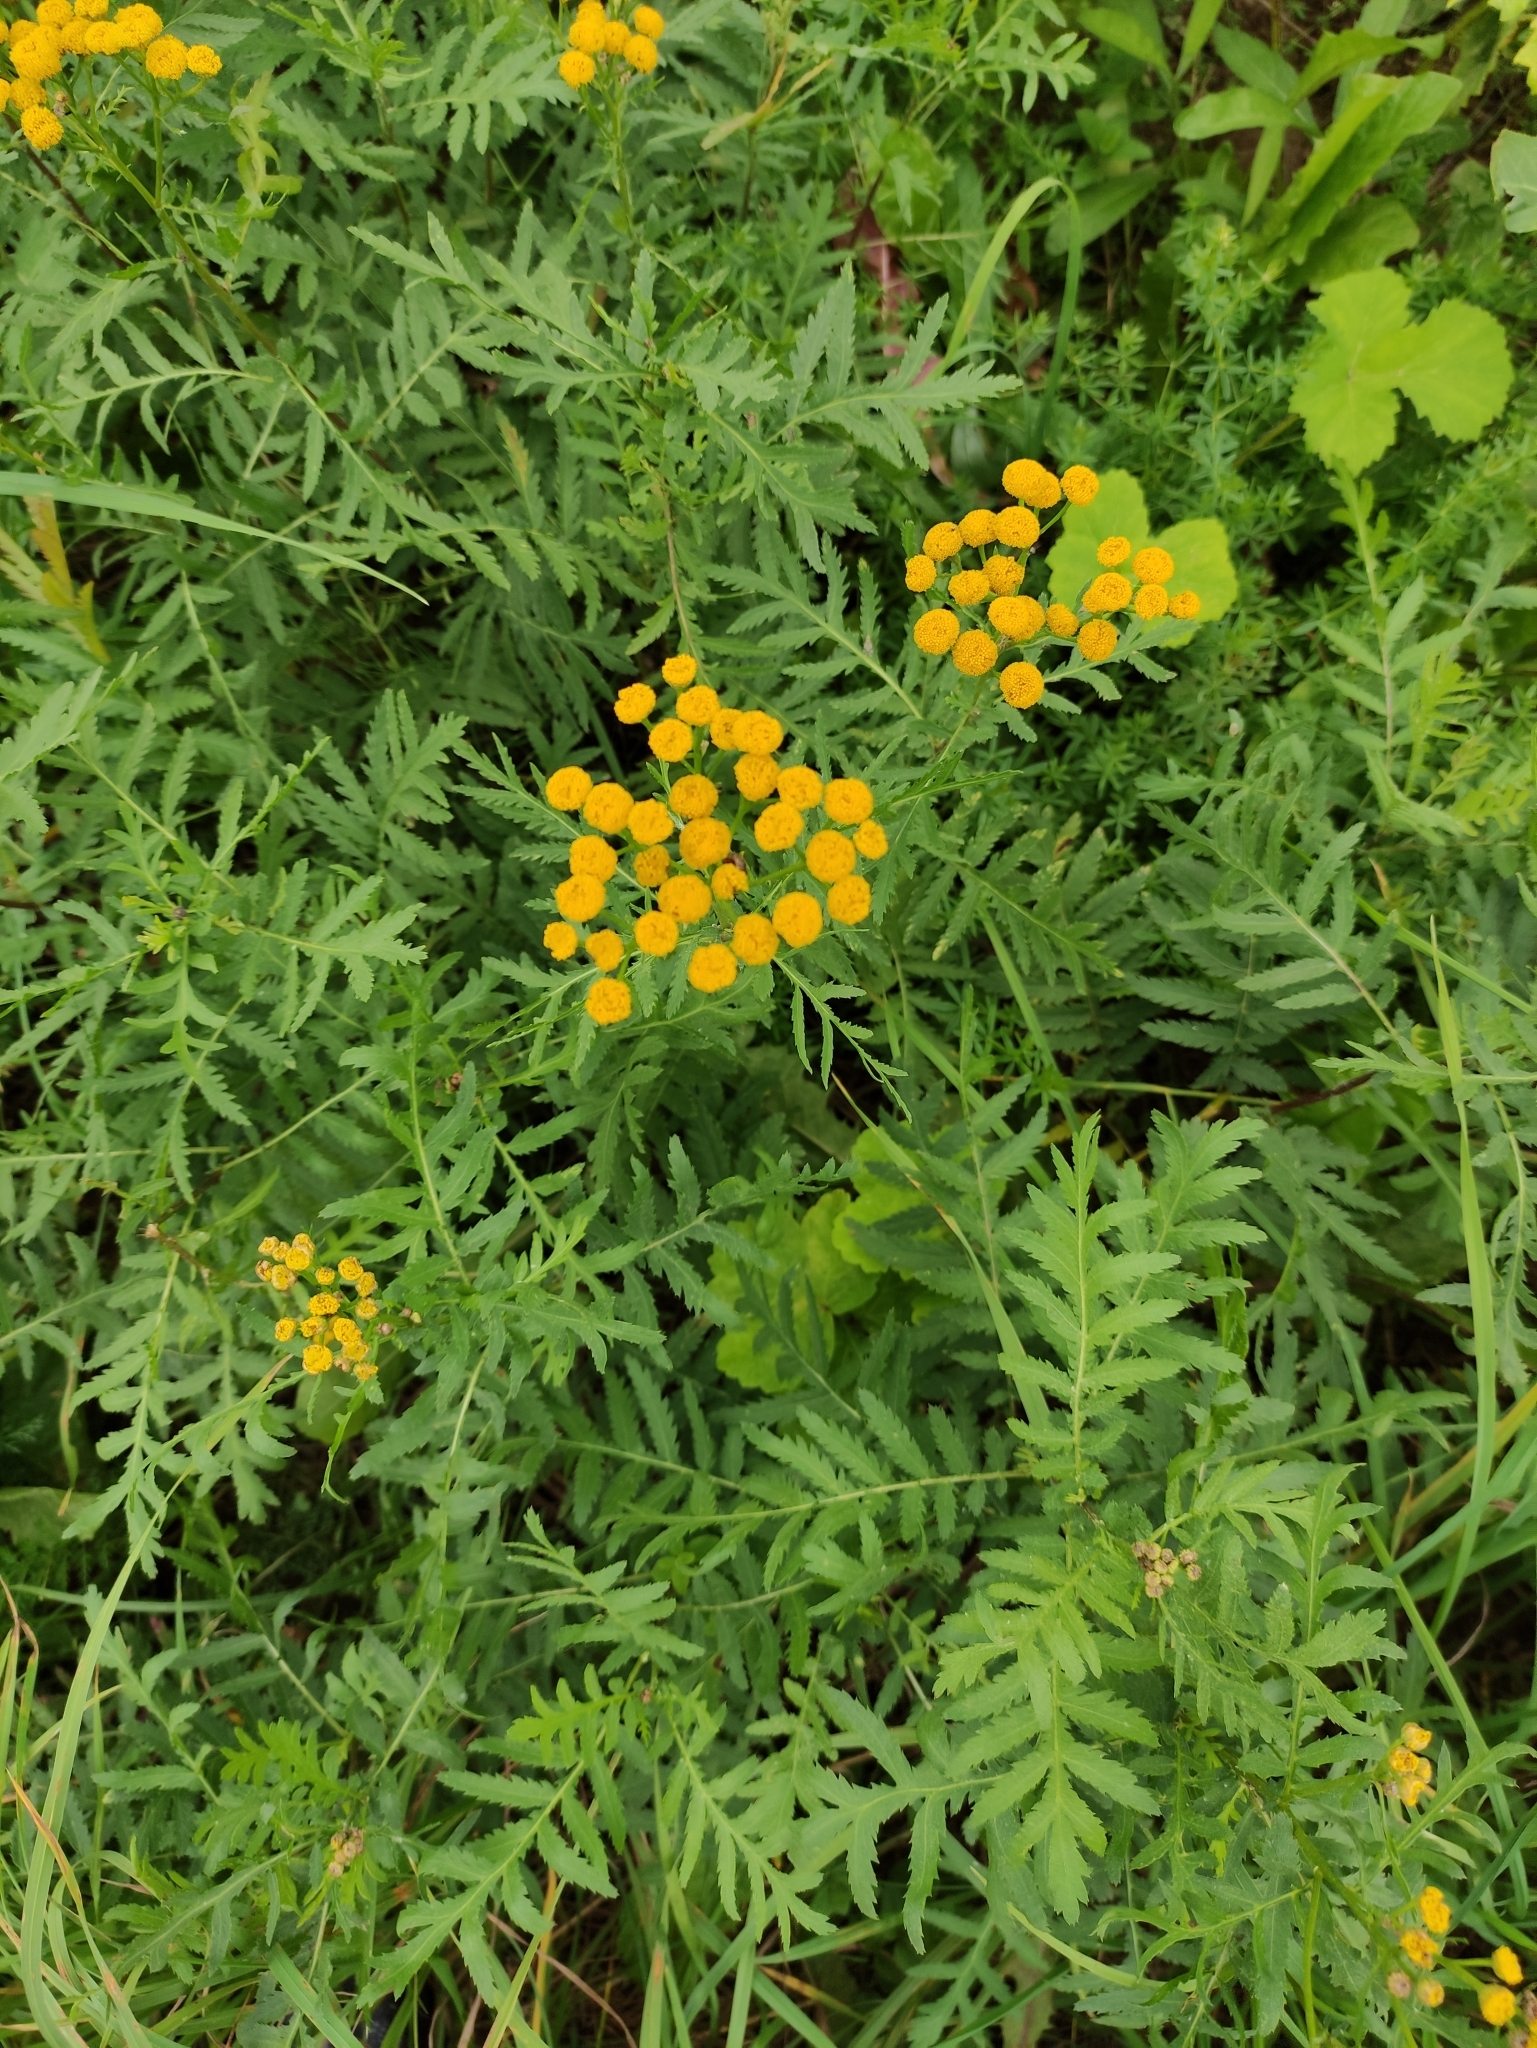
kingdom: Plantae
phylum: Tracheophyta
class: Magnoliopsida
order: Asterales
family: Asteraceae
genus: Tanacetum
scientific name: Tanacetum vulgare
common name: Common tansy
